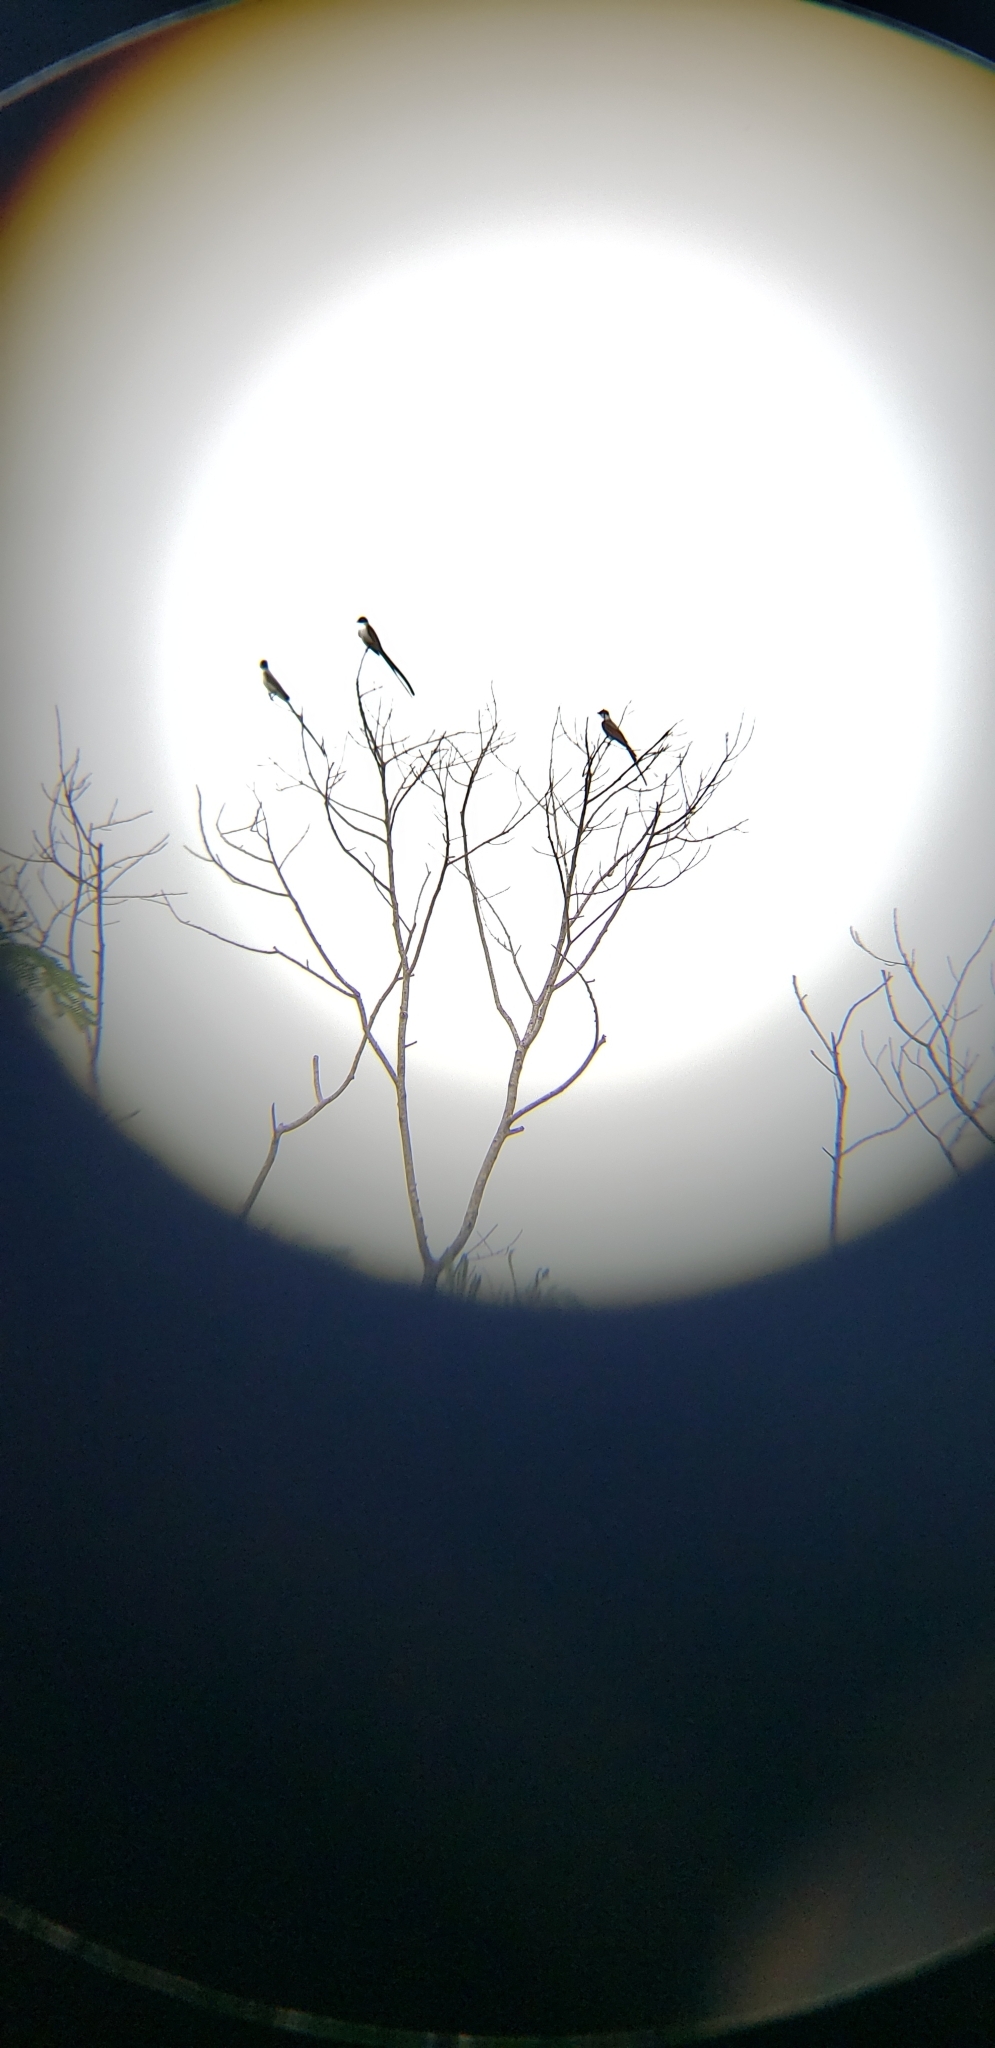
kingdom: Animalia
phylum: Chordata
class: Aves
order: Passeriformes
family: Tyrannidae
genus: Tyrannus
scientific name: Tyrannus savana
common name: Fork-tailed flycatcher
